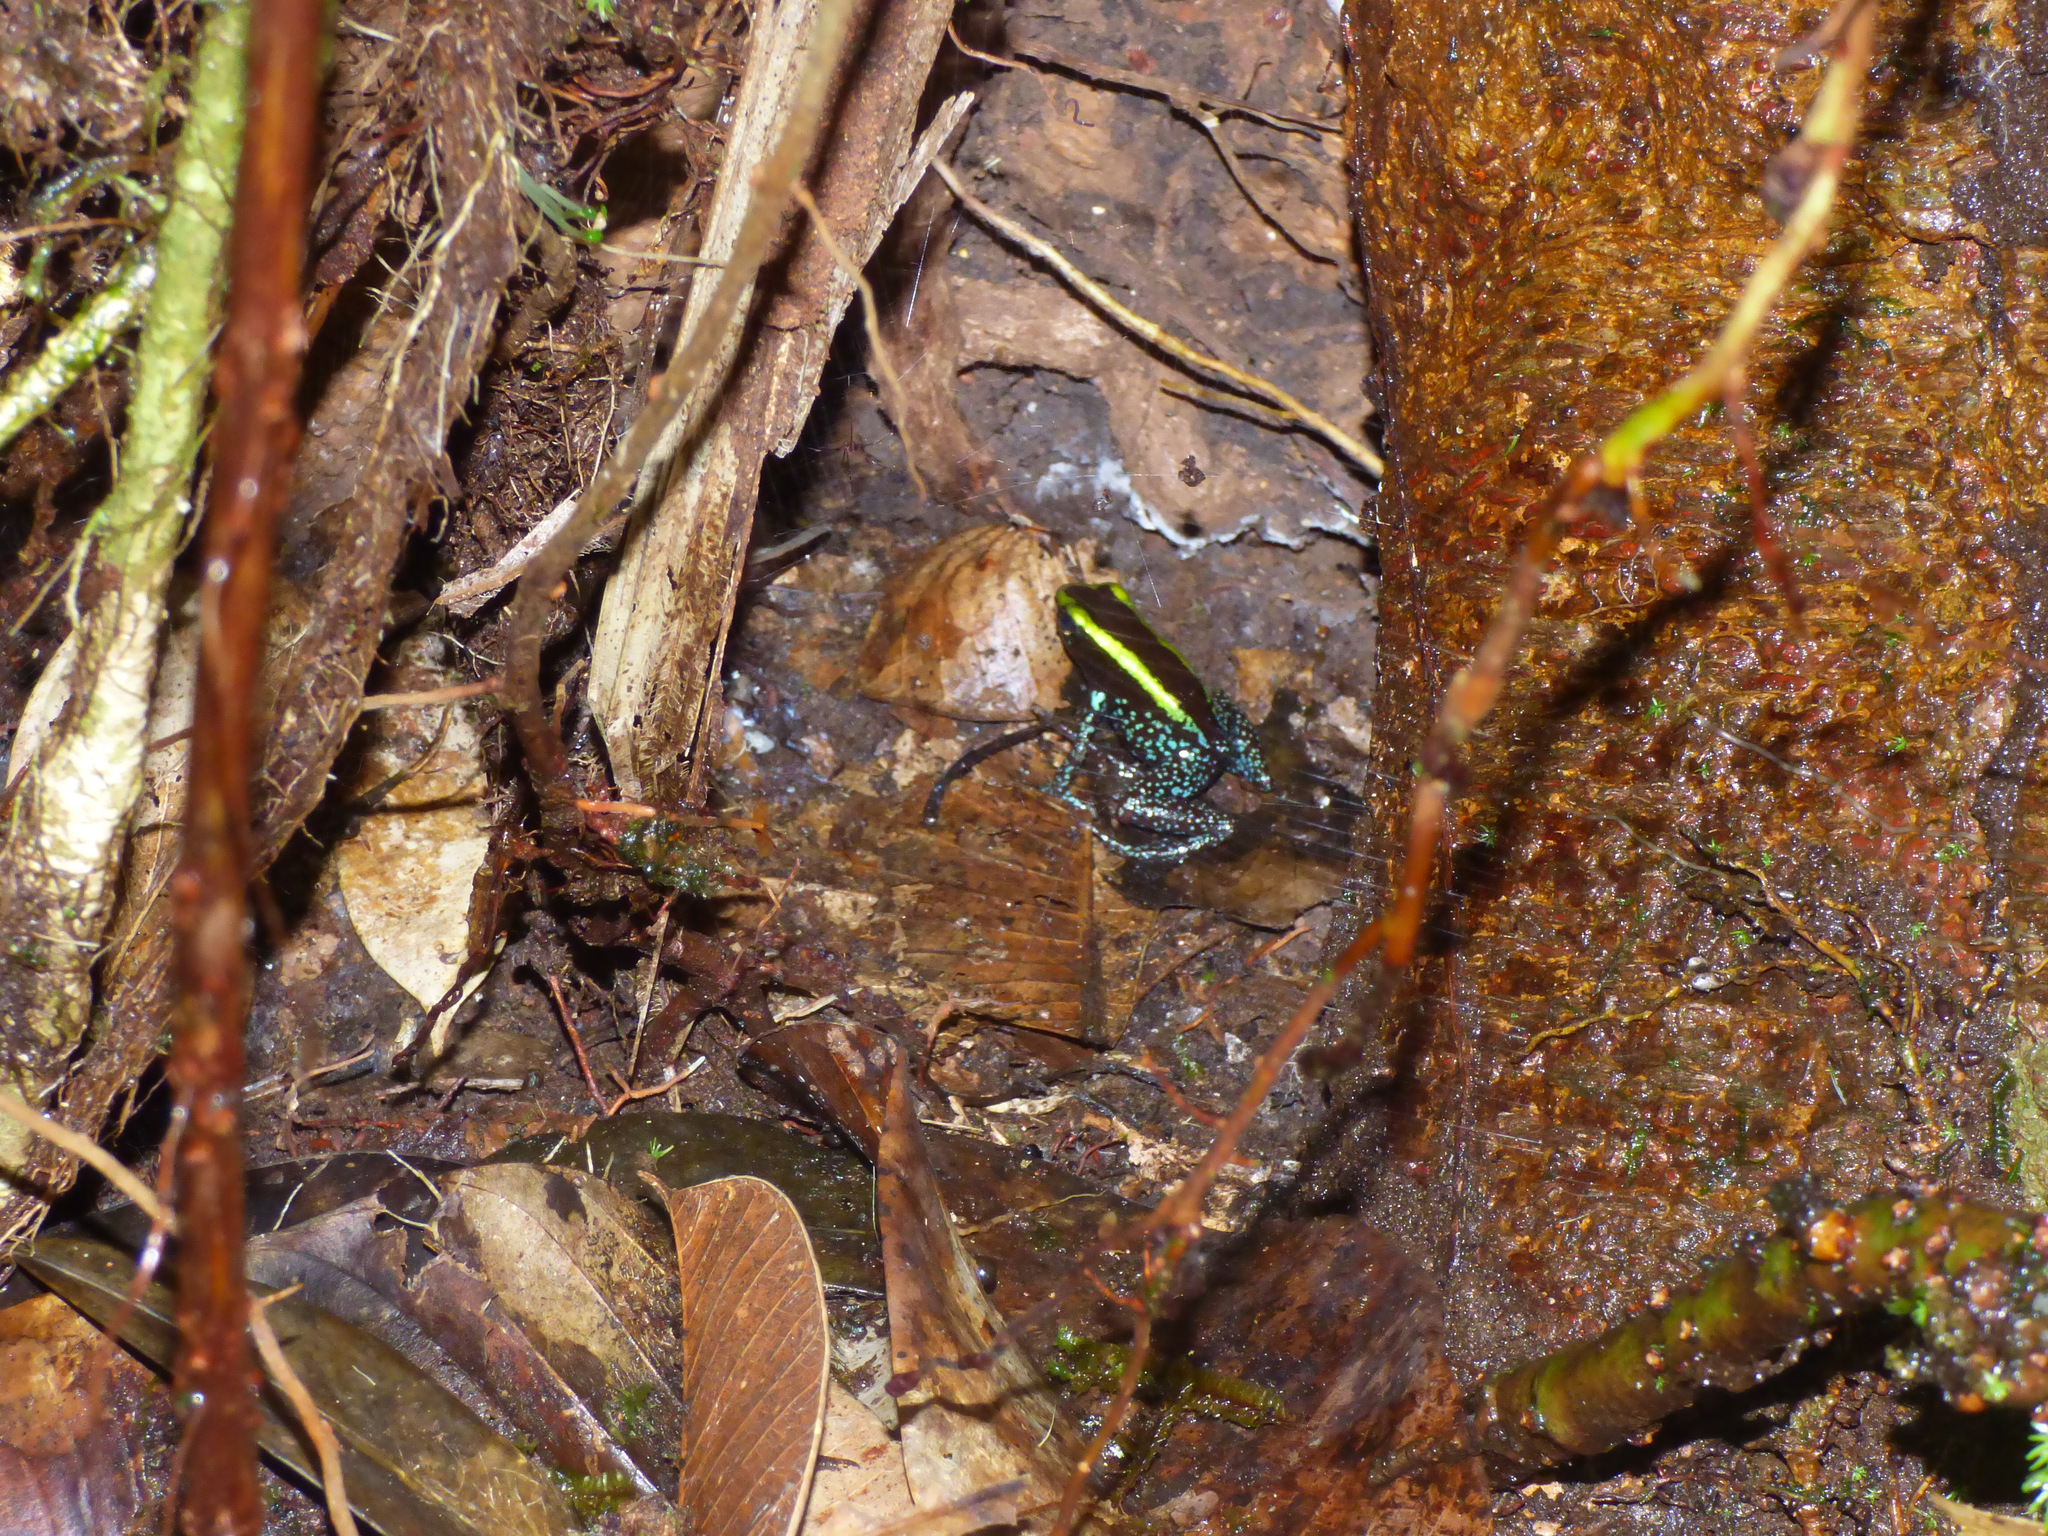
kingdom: Animalia
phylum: Chordata
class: Amphibia
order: Anura
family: Dendrobatidae
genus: Phyllobates
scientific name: Phyllobates aurotaenia
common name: Kokoe poison frog
